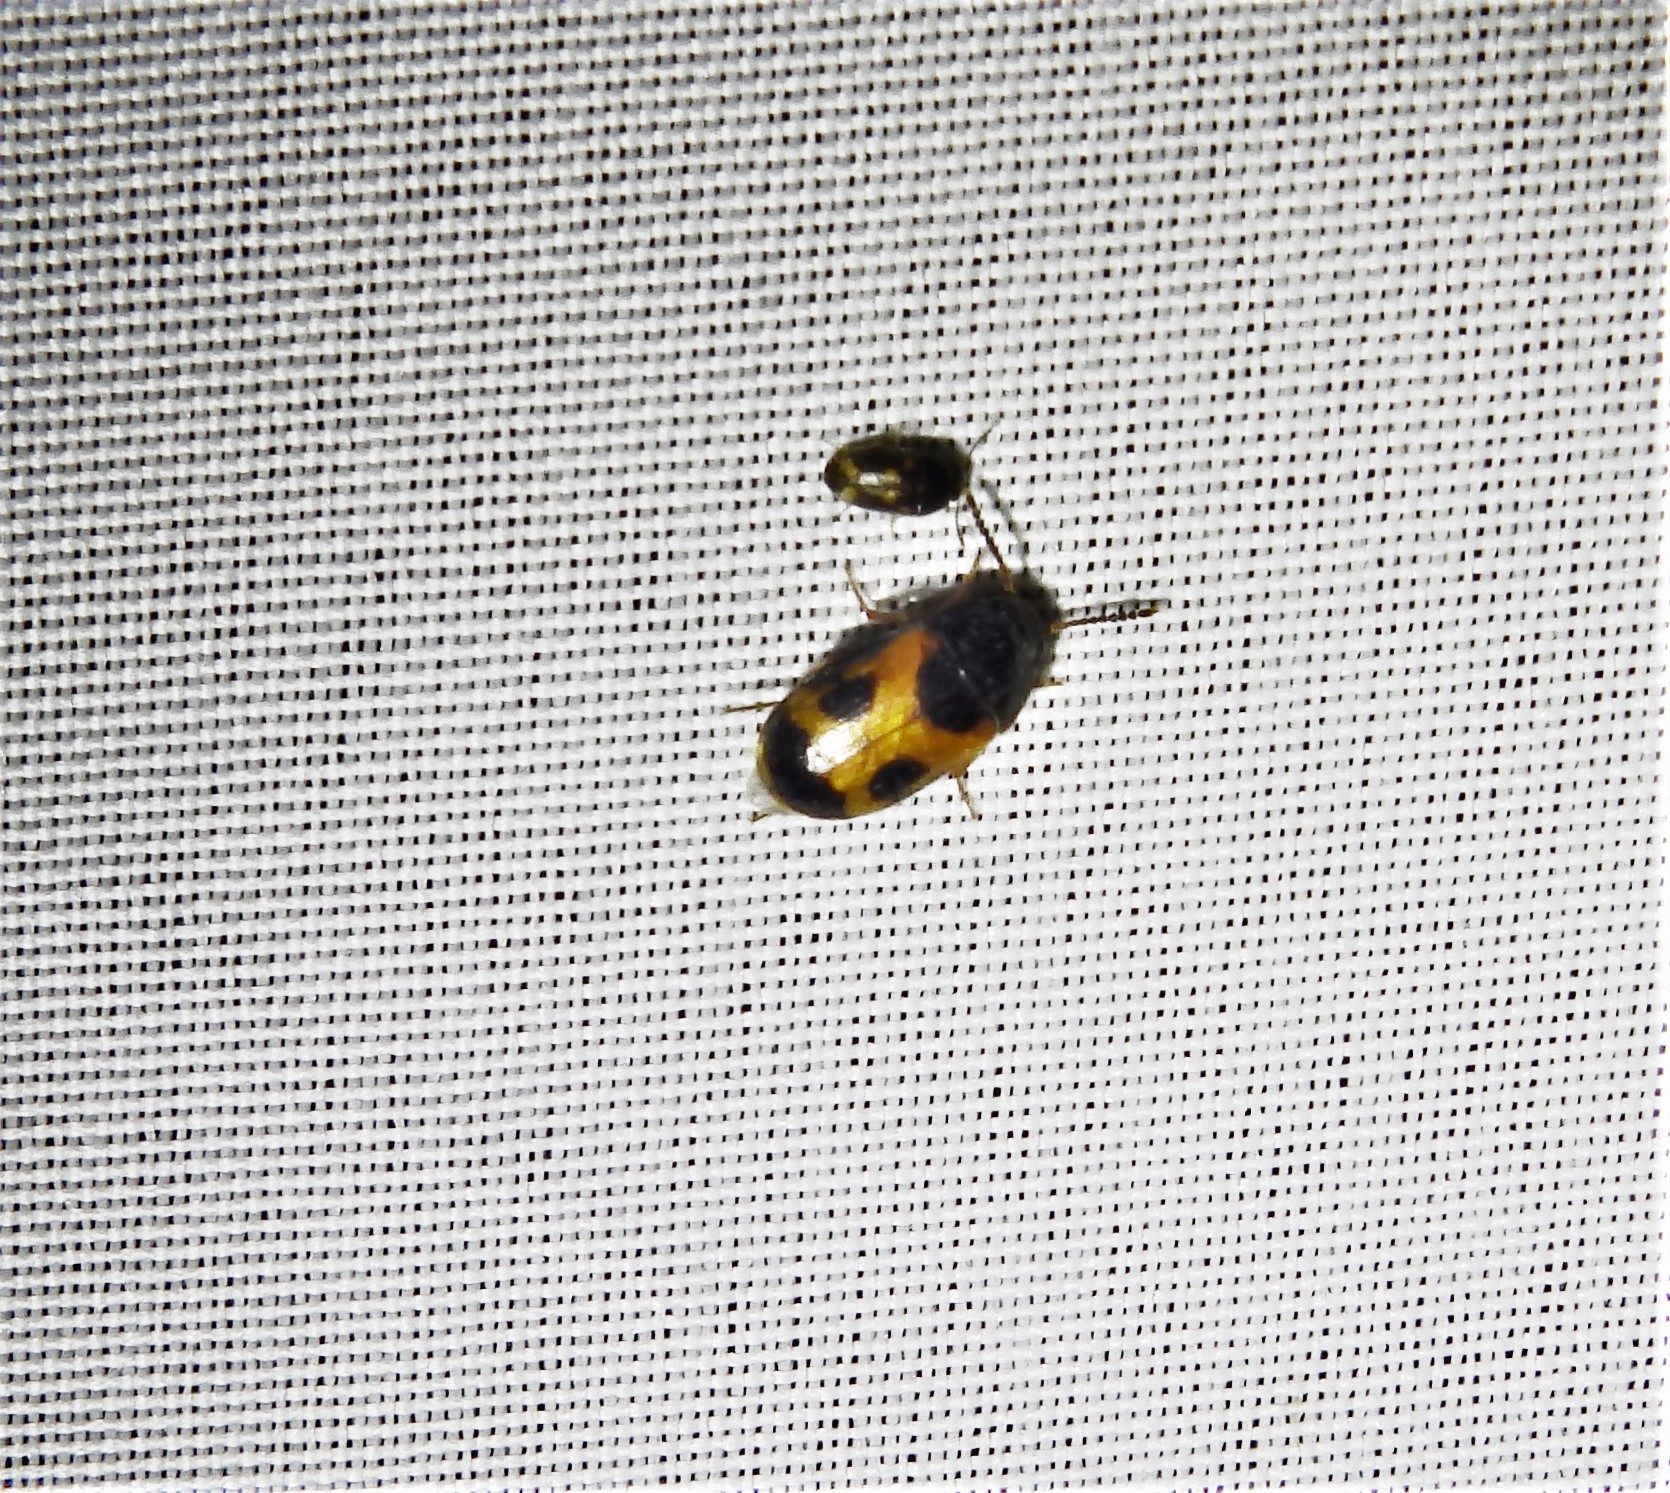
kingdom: Animalia
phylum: Arthropoda
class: Insecta
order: Coleoptera
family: Mycetophagidae
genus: Mycetophagus
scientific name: Mycetophagus punctatus
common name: Hairy fungus beetle
